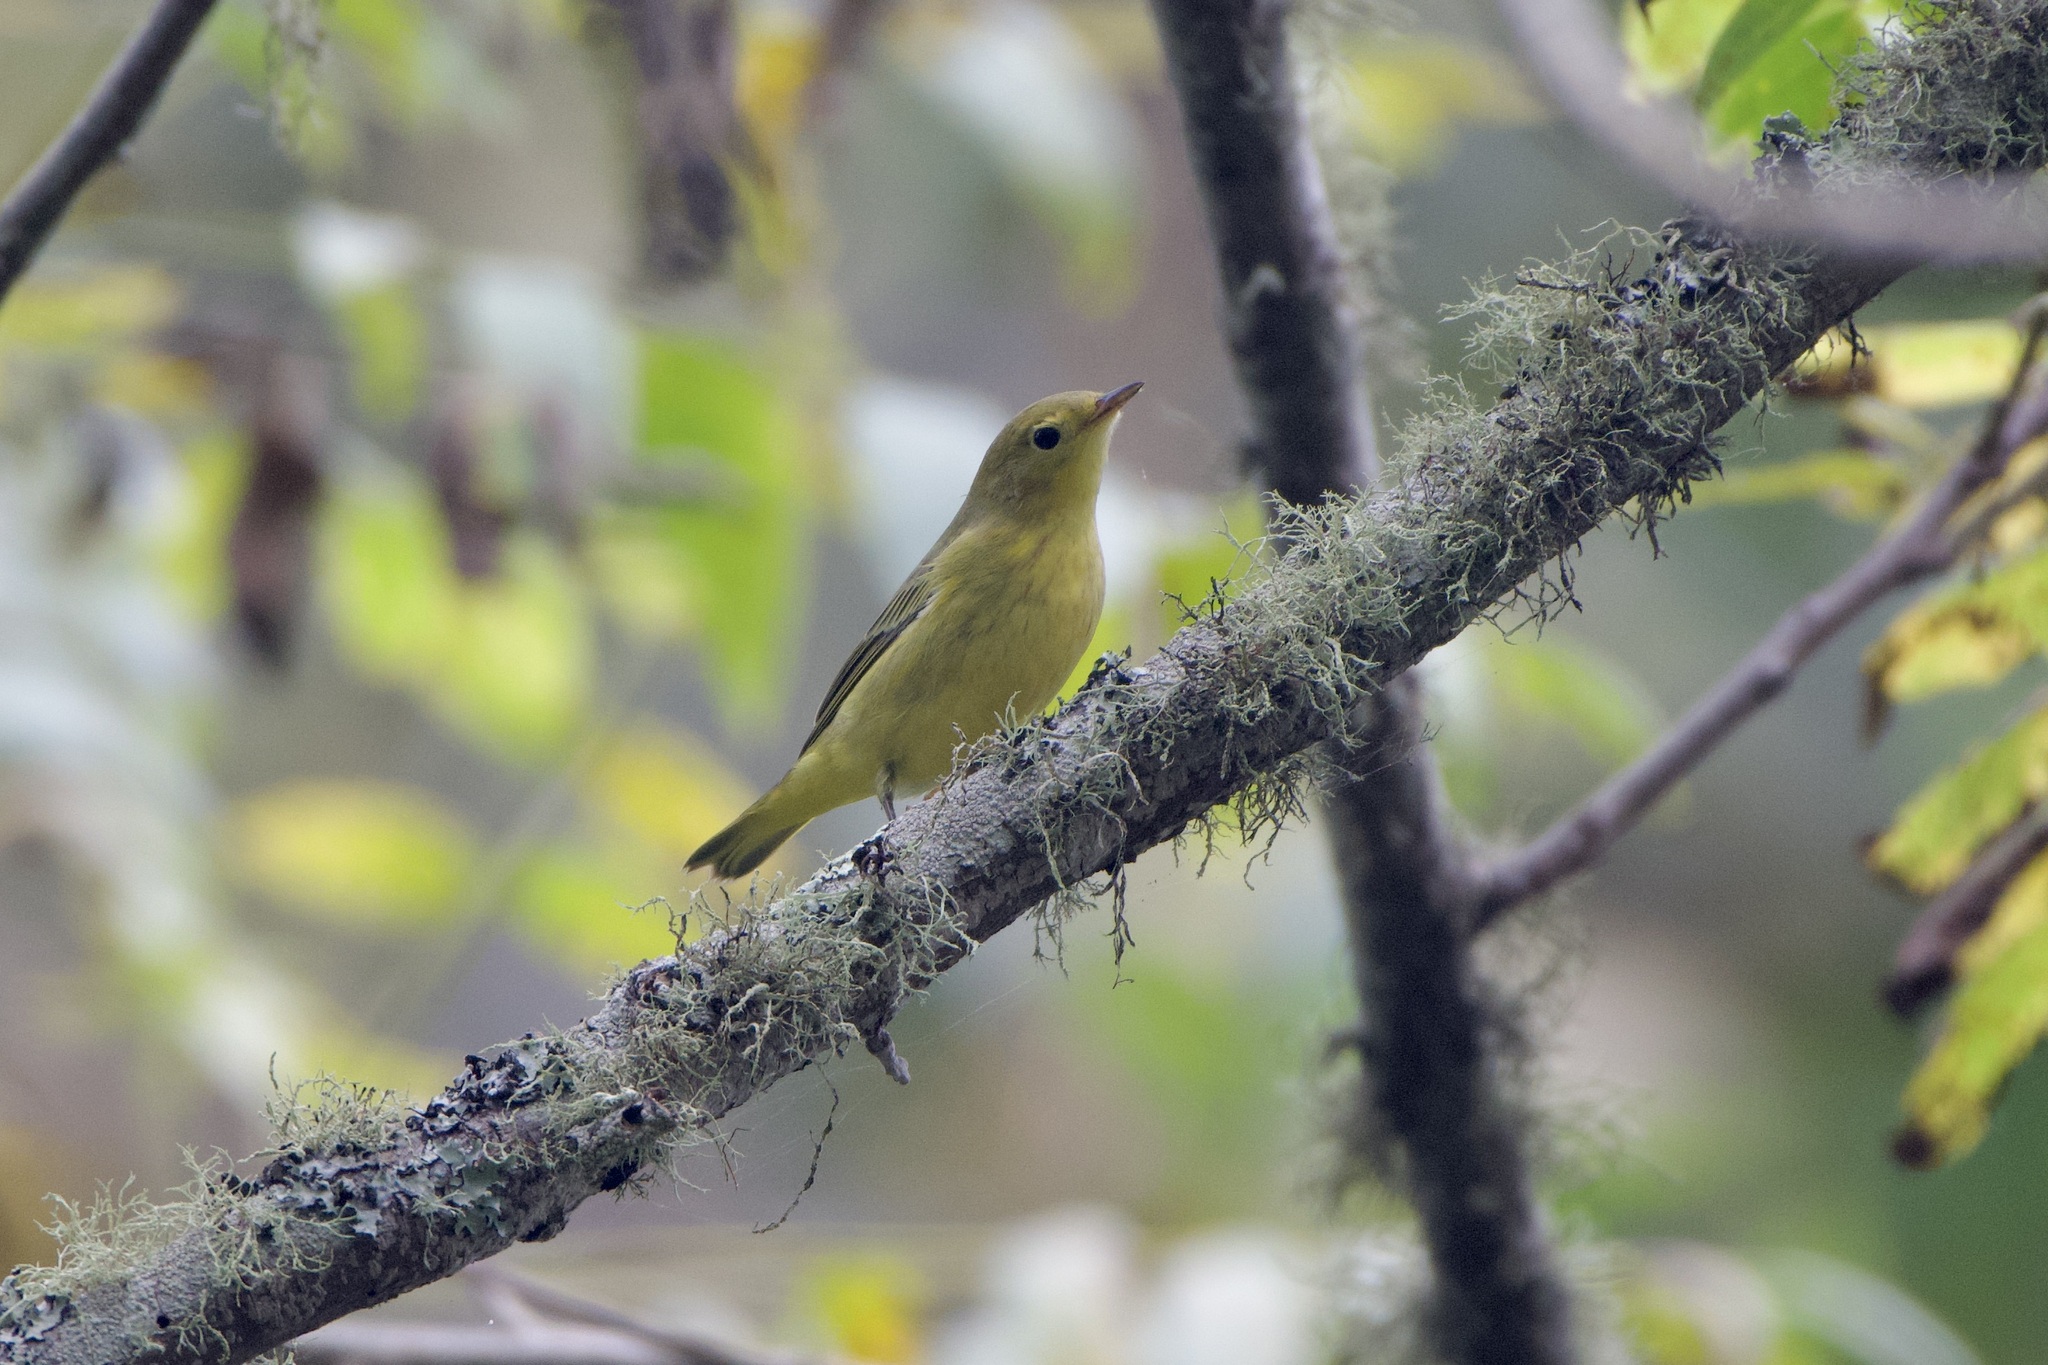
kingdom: Animalia
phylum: Chordata
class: Aves
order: Passeriformes
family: Parulidae
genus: Setophaga
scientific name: Setophaga petechia
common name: Yellow warbler
